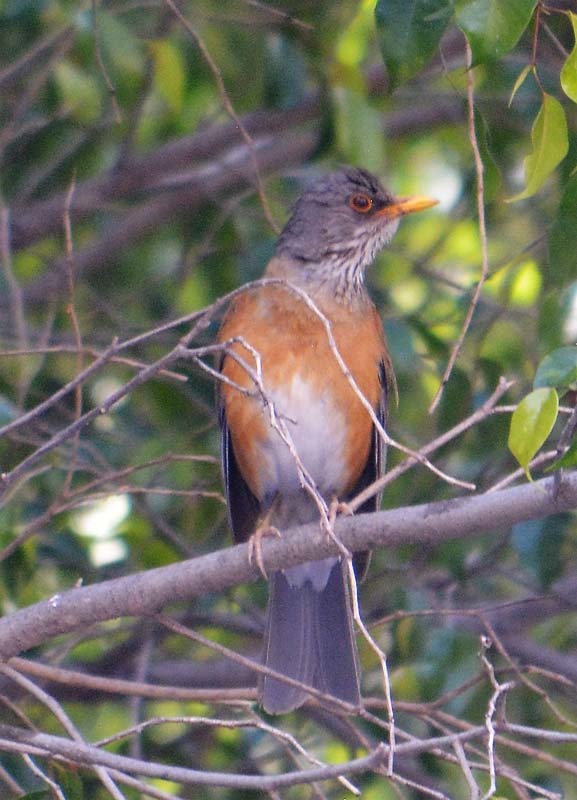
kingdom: Animalia
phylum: Chordata
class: Aves
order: Passeriformes
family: Turdidae
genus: Turdus
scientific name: Turdus rufopalliatus
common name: Rufous-backed robin
